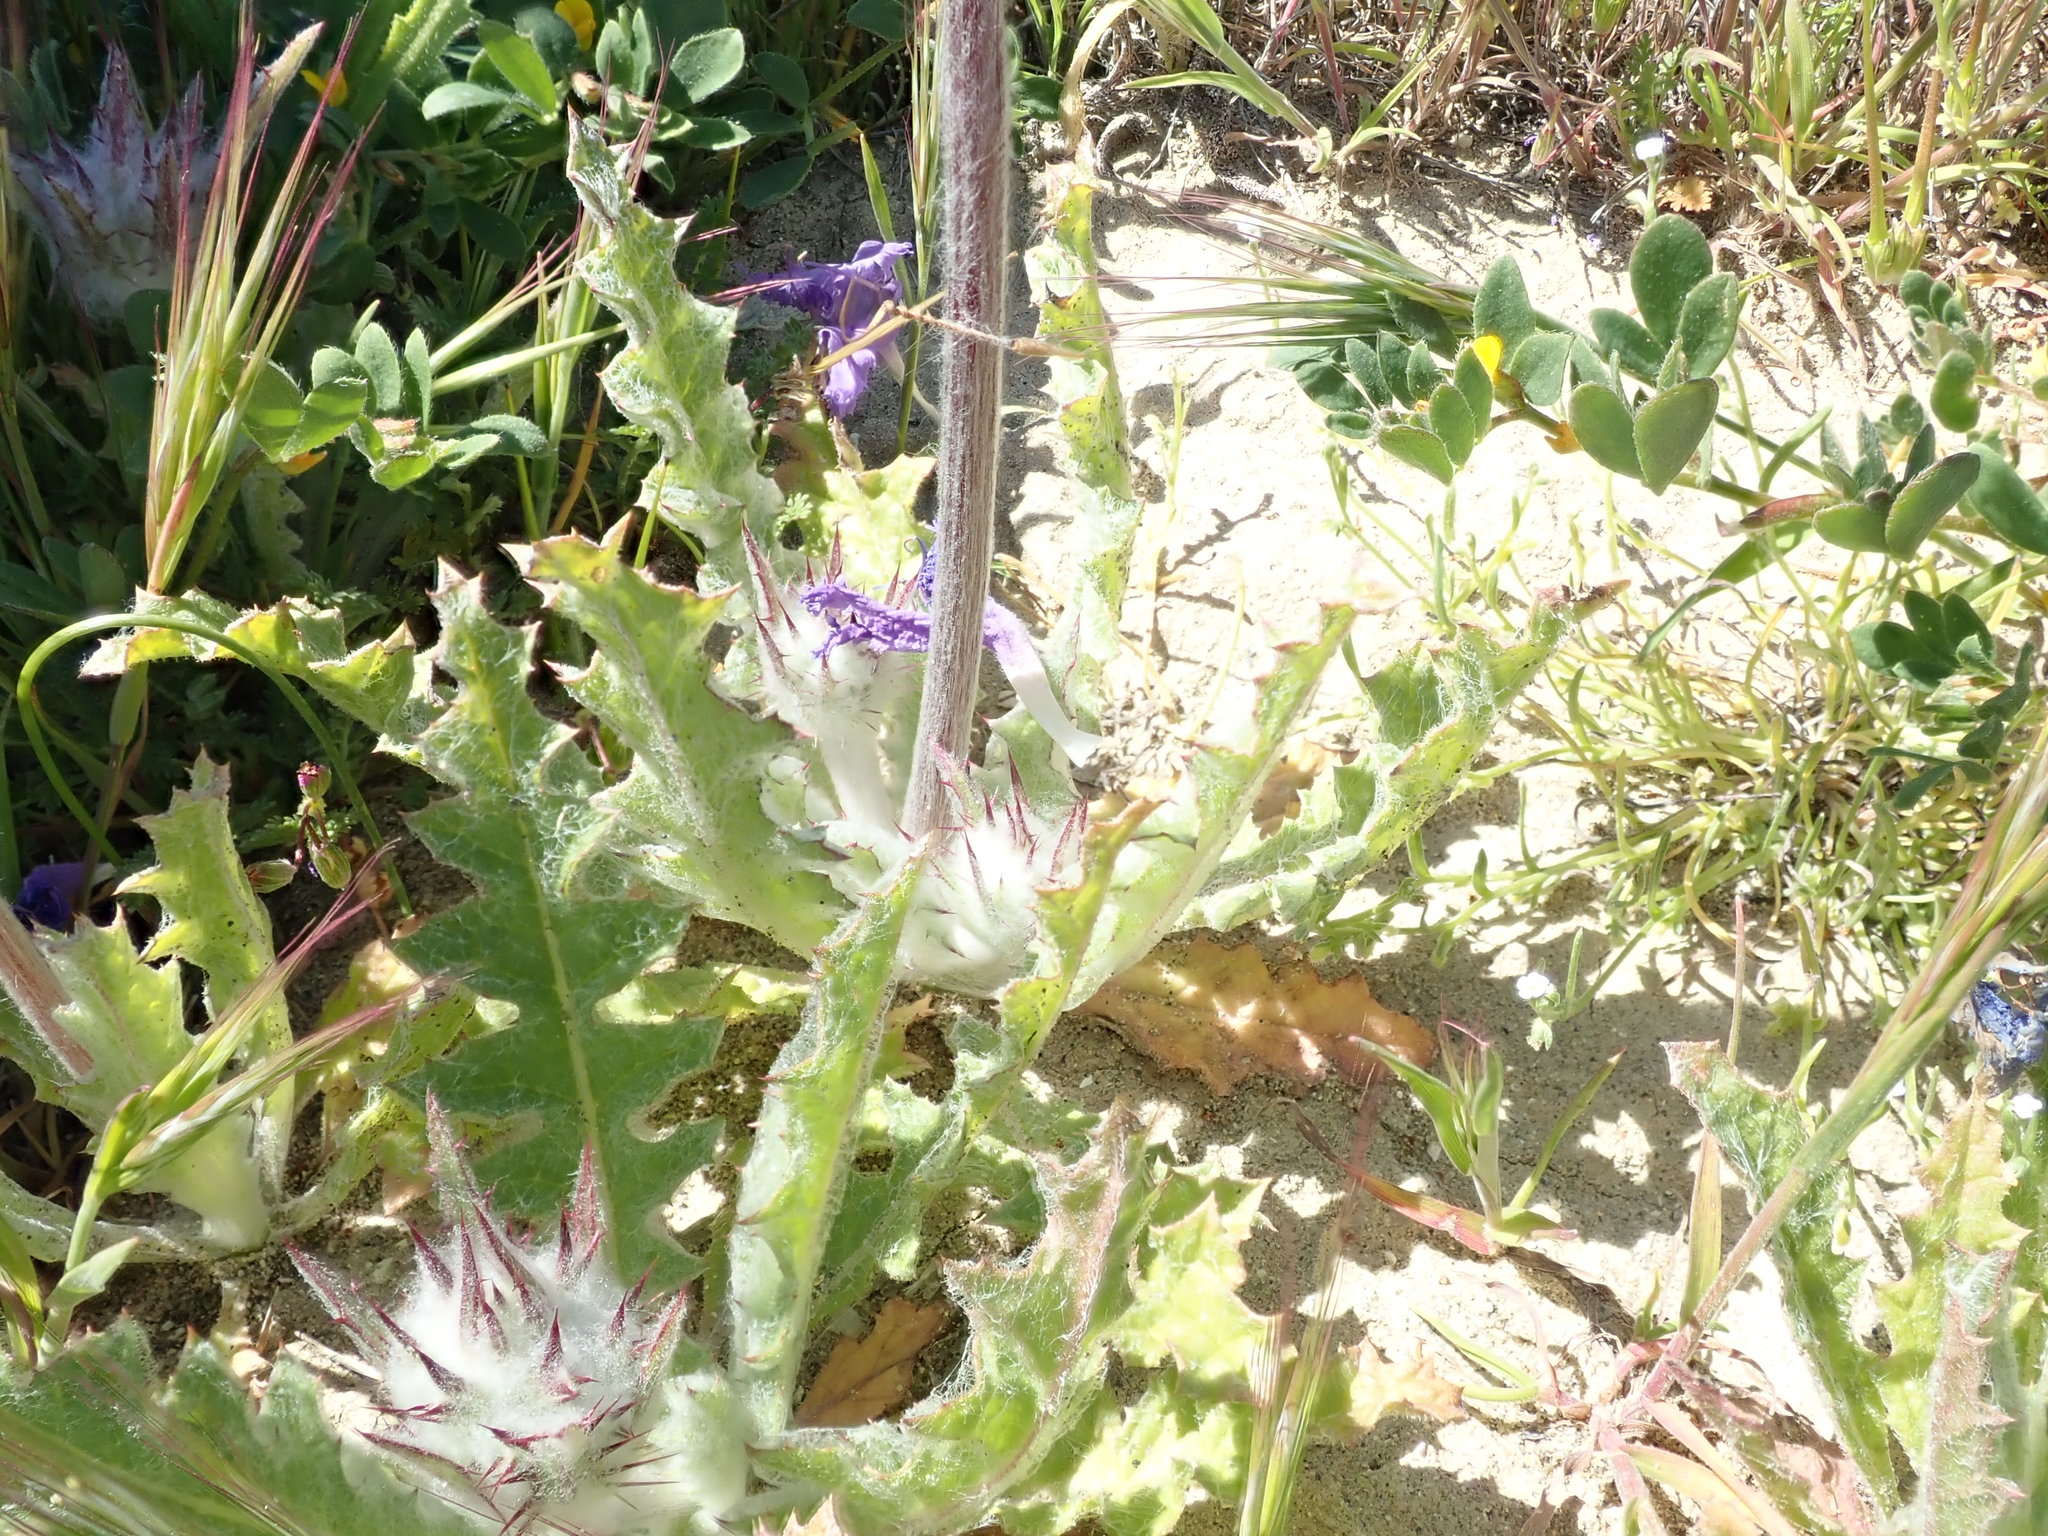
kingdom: Plantae
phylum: Tracheophyta
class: Magnoliopsida
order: Lamiales
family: Lamiaceae
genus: Salvia
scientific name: Salvia carduacea
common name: Thistle sage
